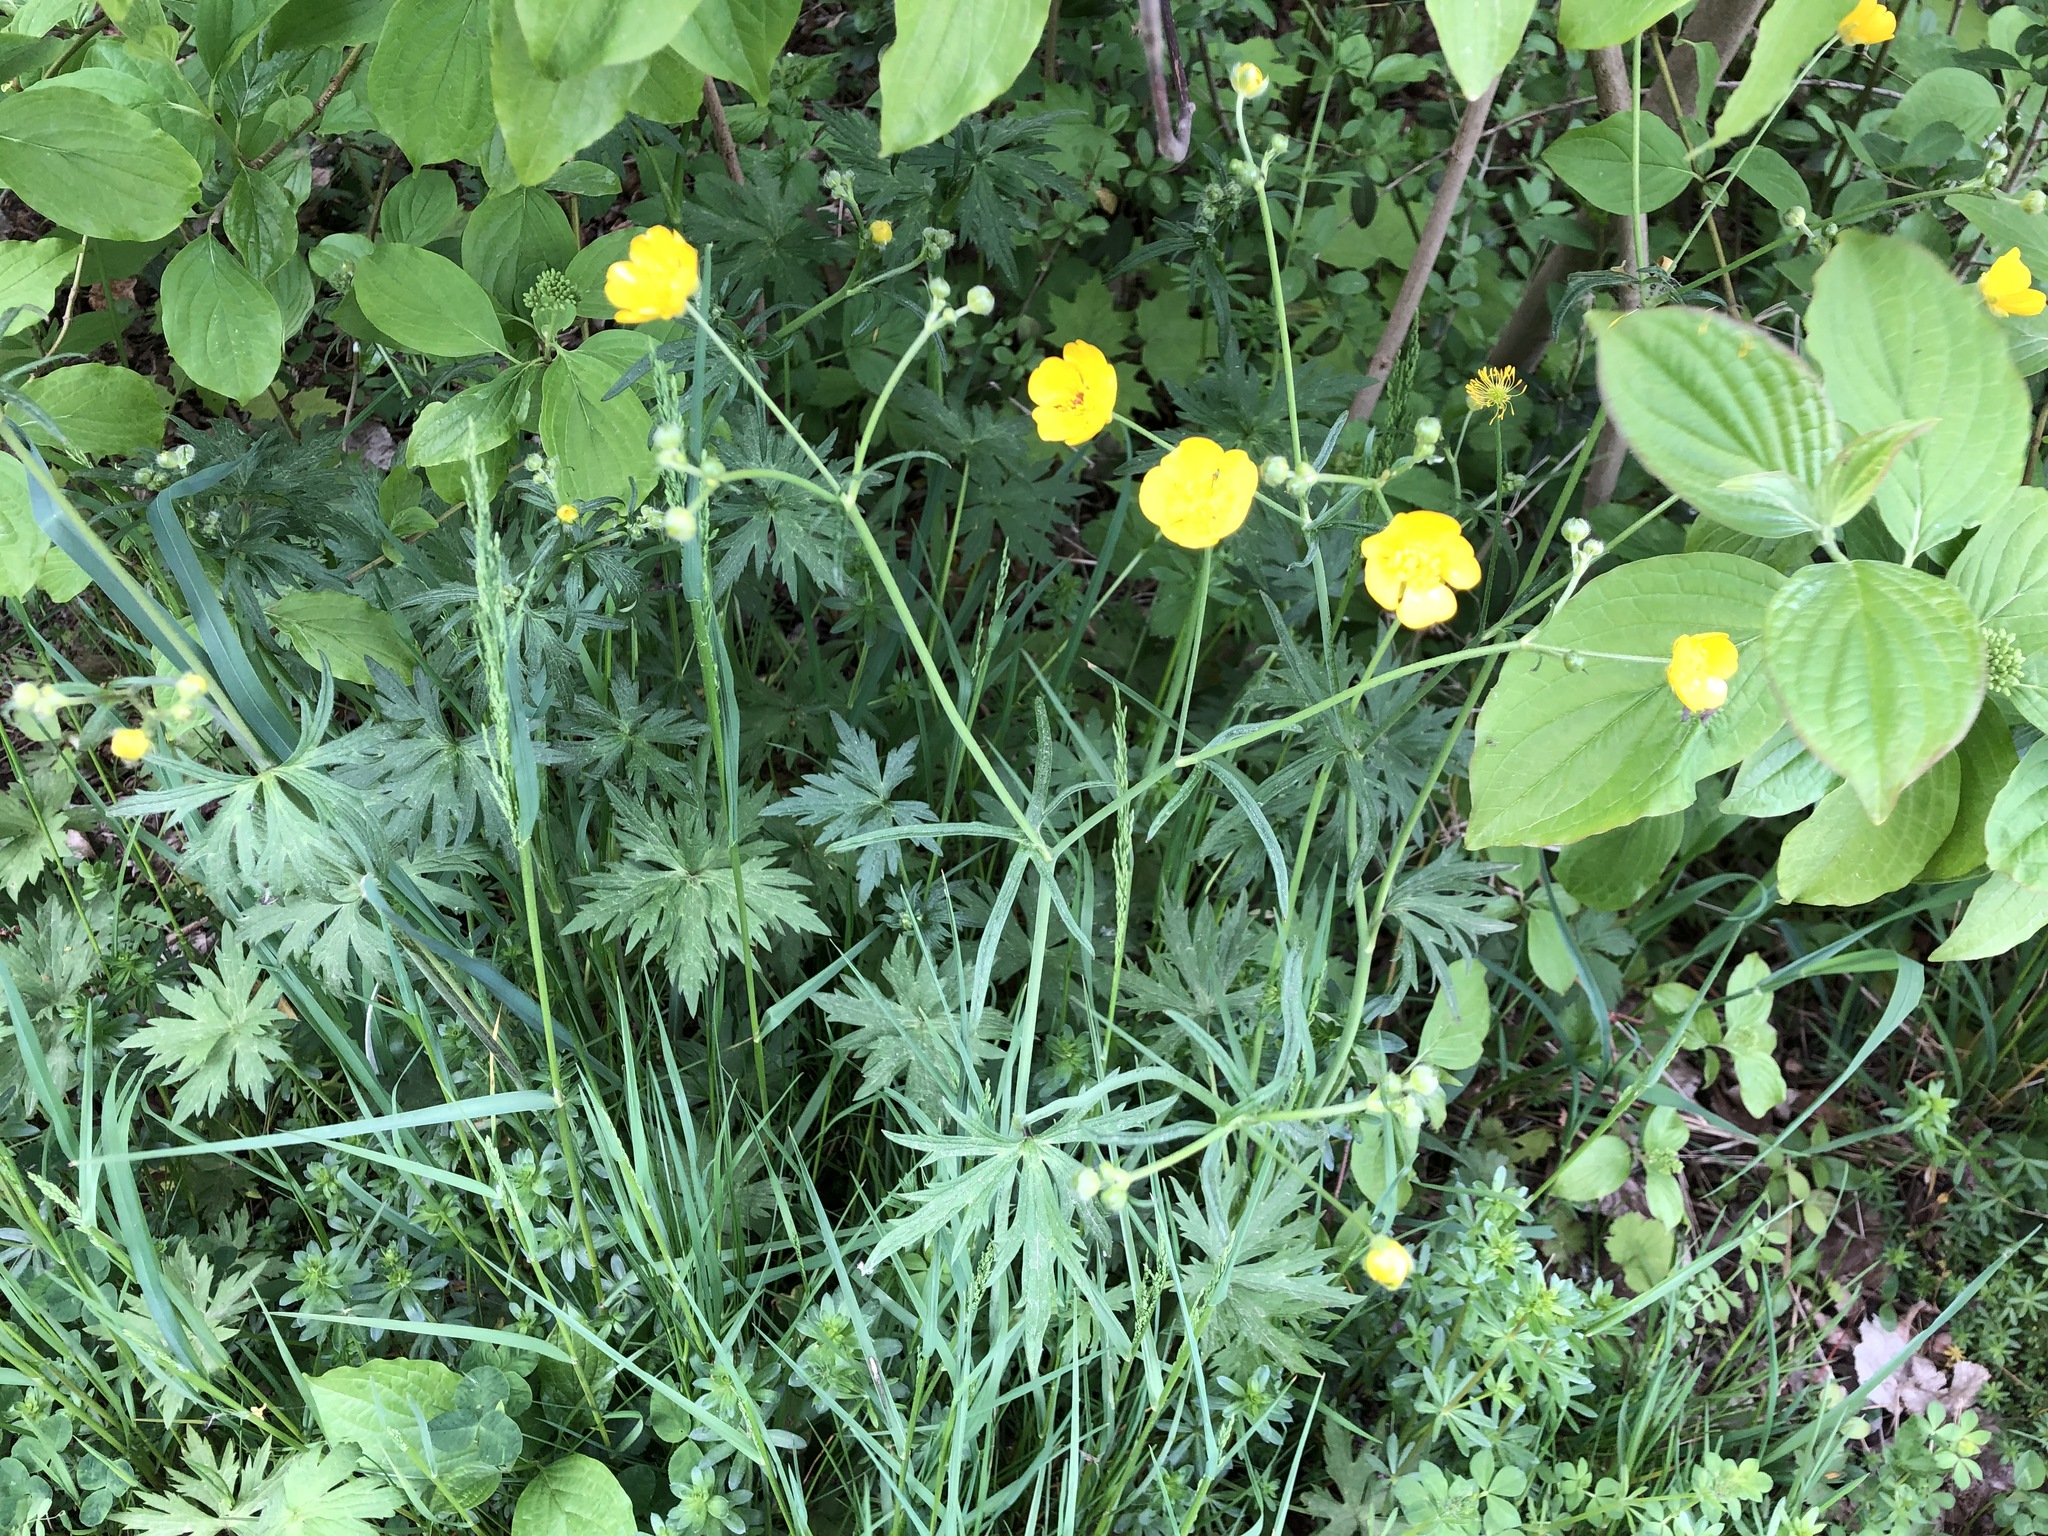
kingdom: Plantae
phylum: Tracheophyta
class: Magnoliopsida
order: Ranunculales
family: Ranunculaceae
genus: Ranunculus
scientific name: Ranunculus acris
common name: Meadow buttercup
